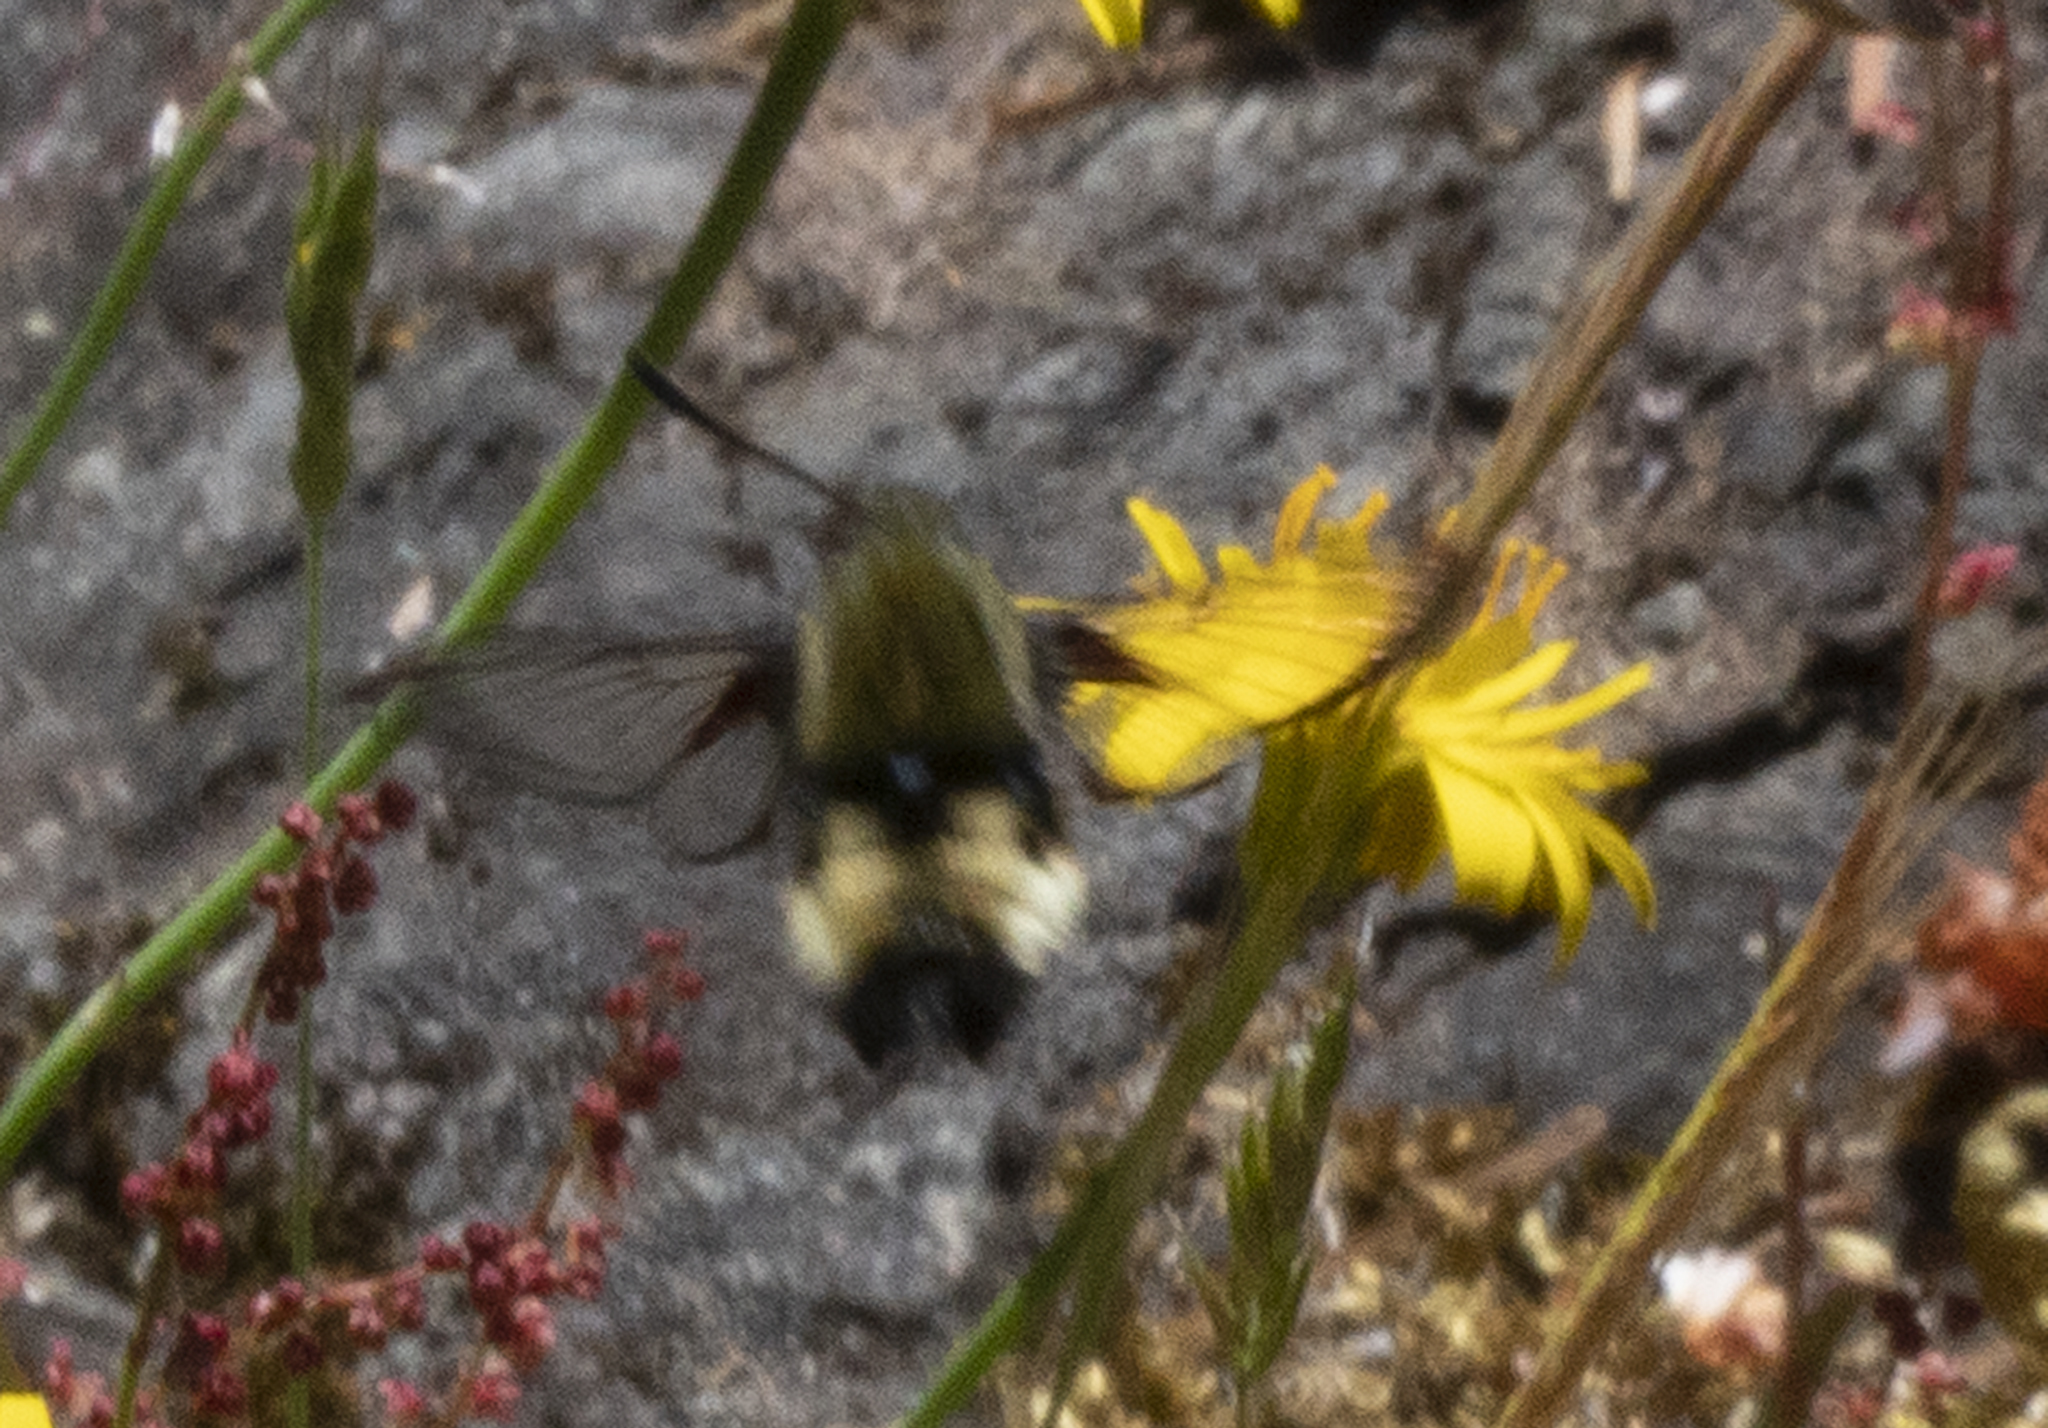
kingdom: Animalia
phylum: Arthropoda
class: Insecta
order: Lepidoptera
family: Sphingidae
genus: Hemaris
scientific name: Hemaris thetis
